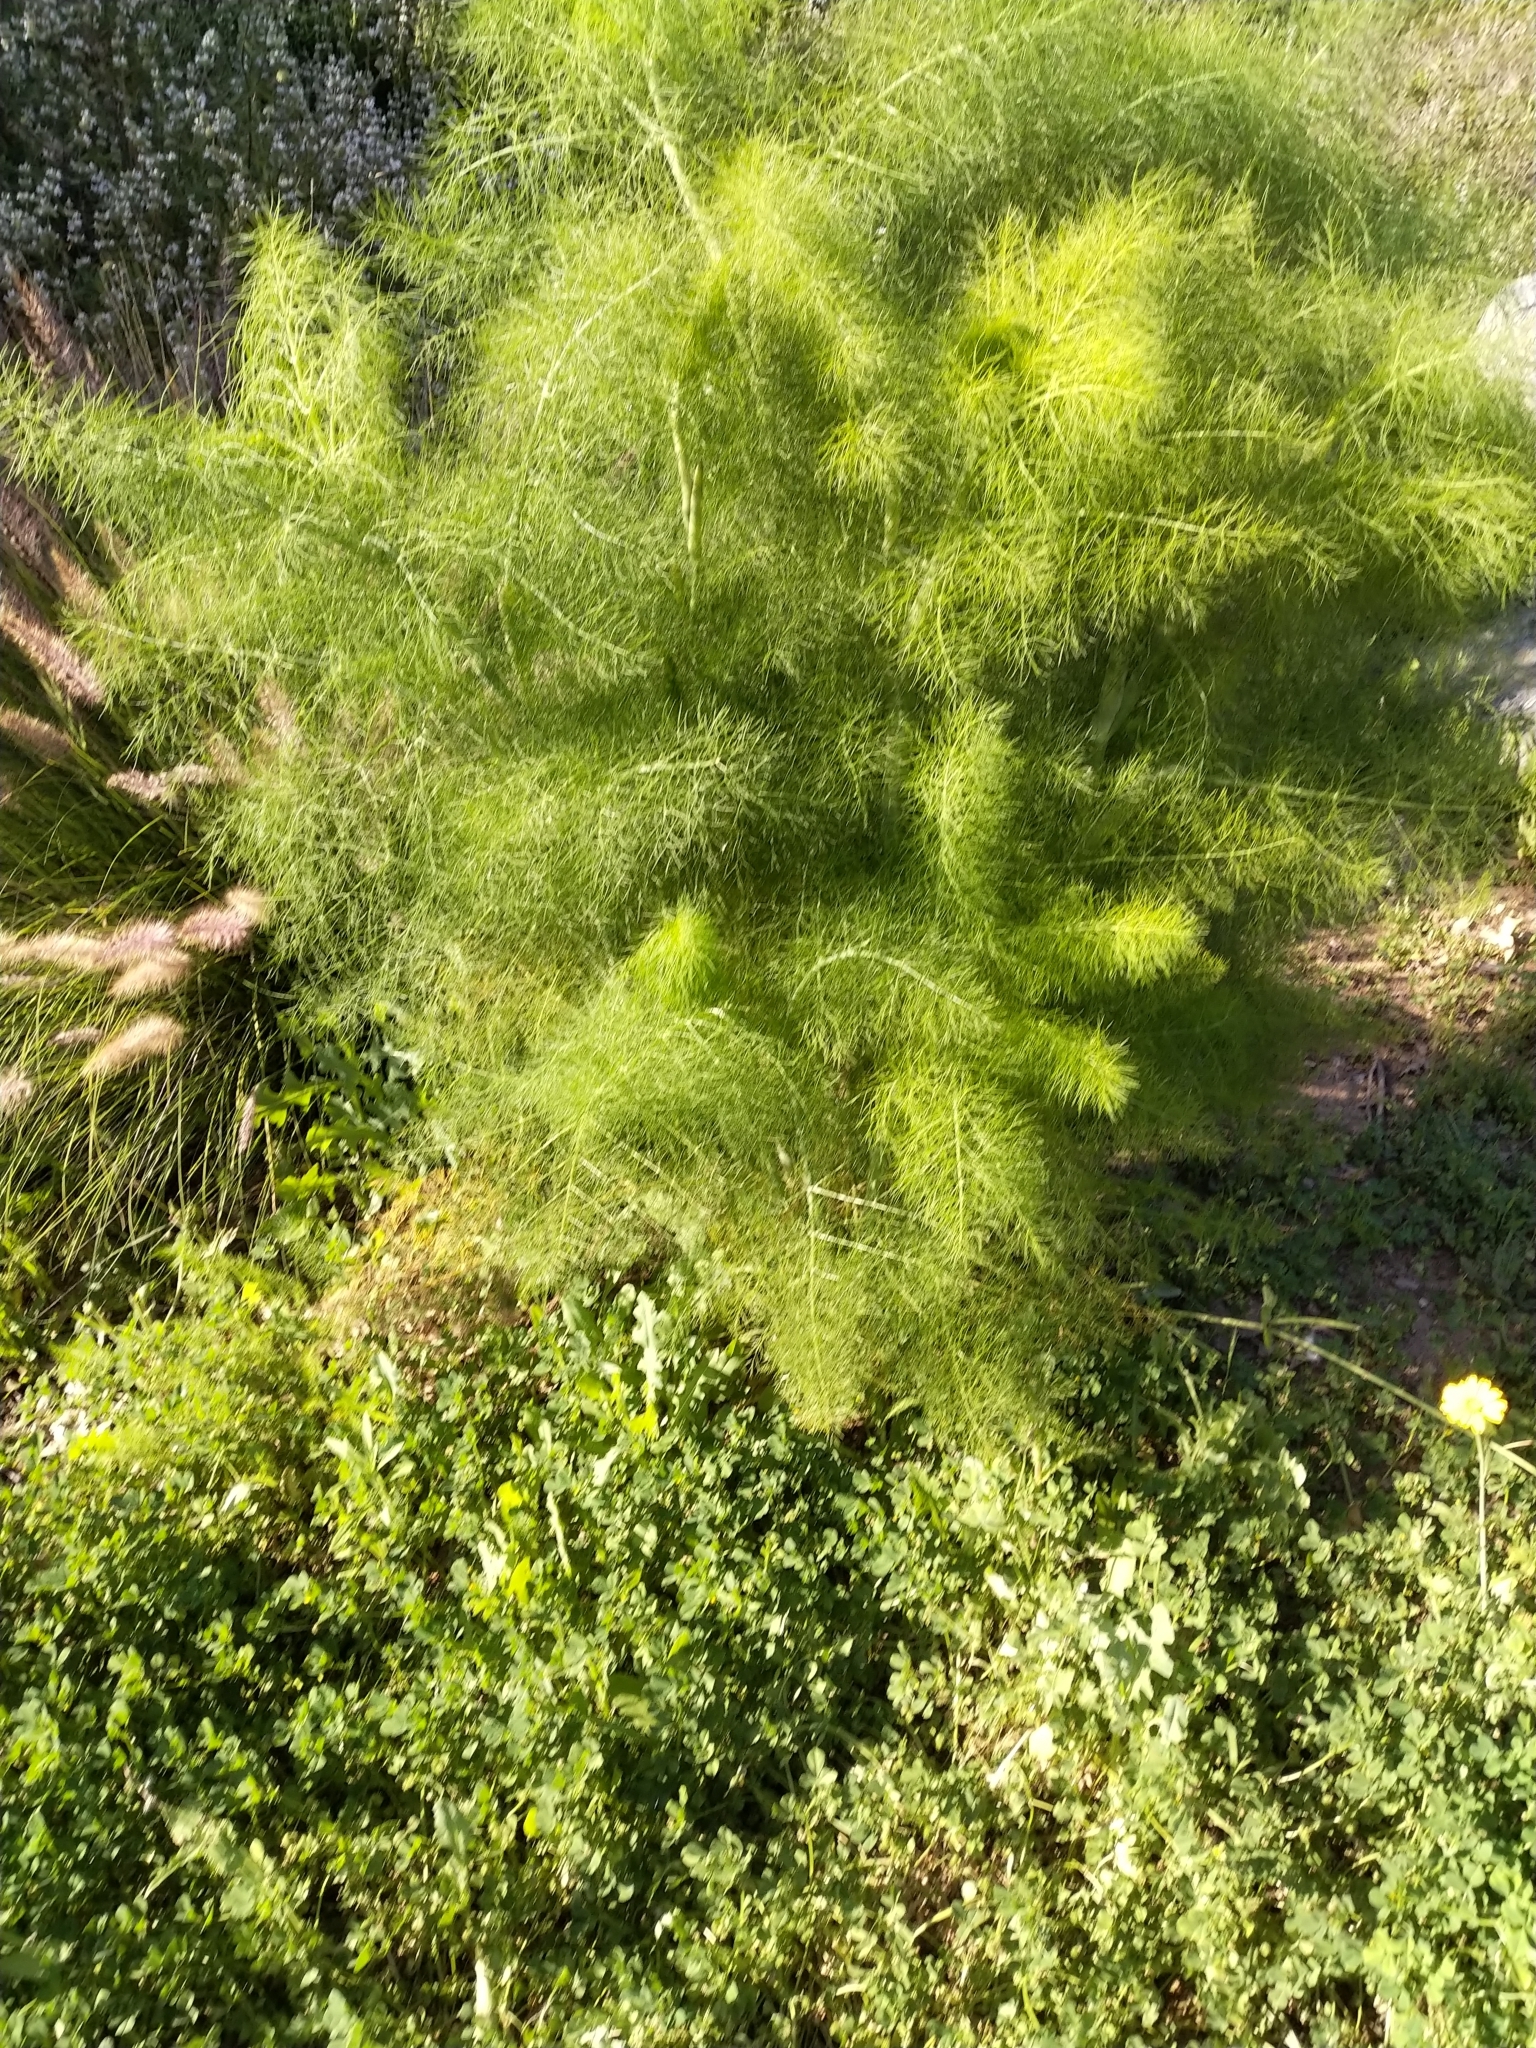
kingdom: Plantae
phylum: Tracheophyta
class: Magnoliopsida
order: Apiales
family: Apiaceae
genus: Foeniculum
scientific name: Foeniculum vulgare
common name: Fennel
